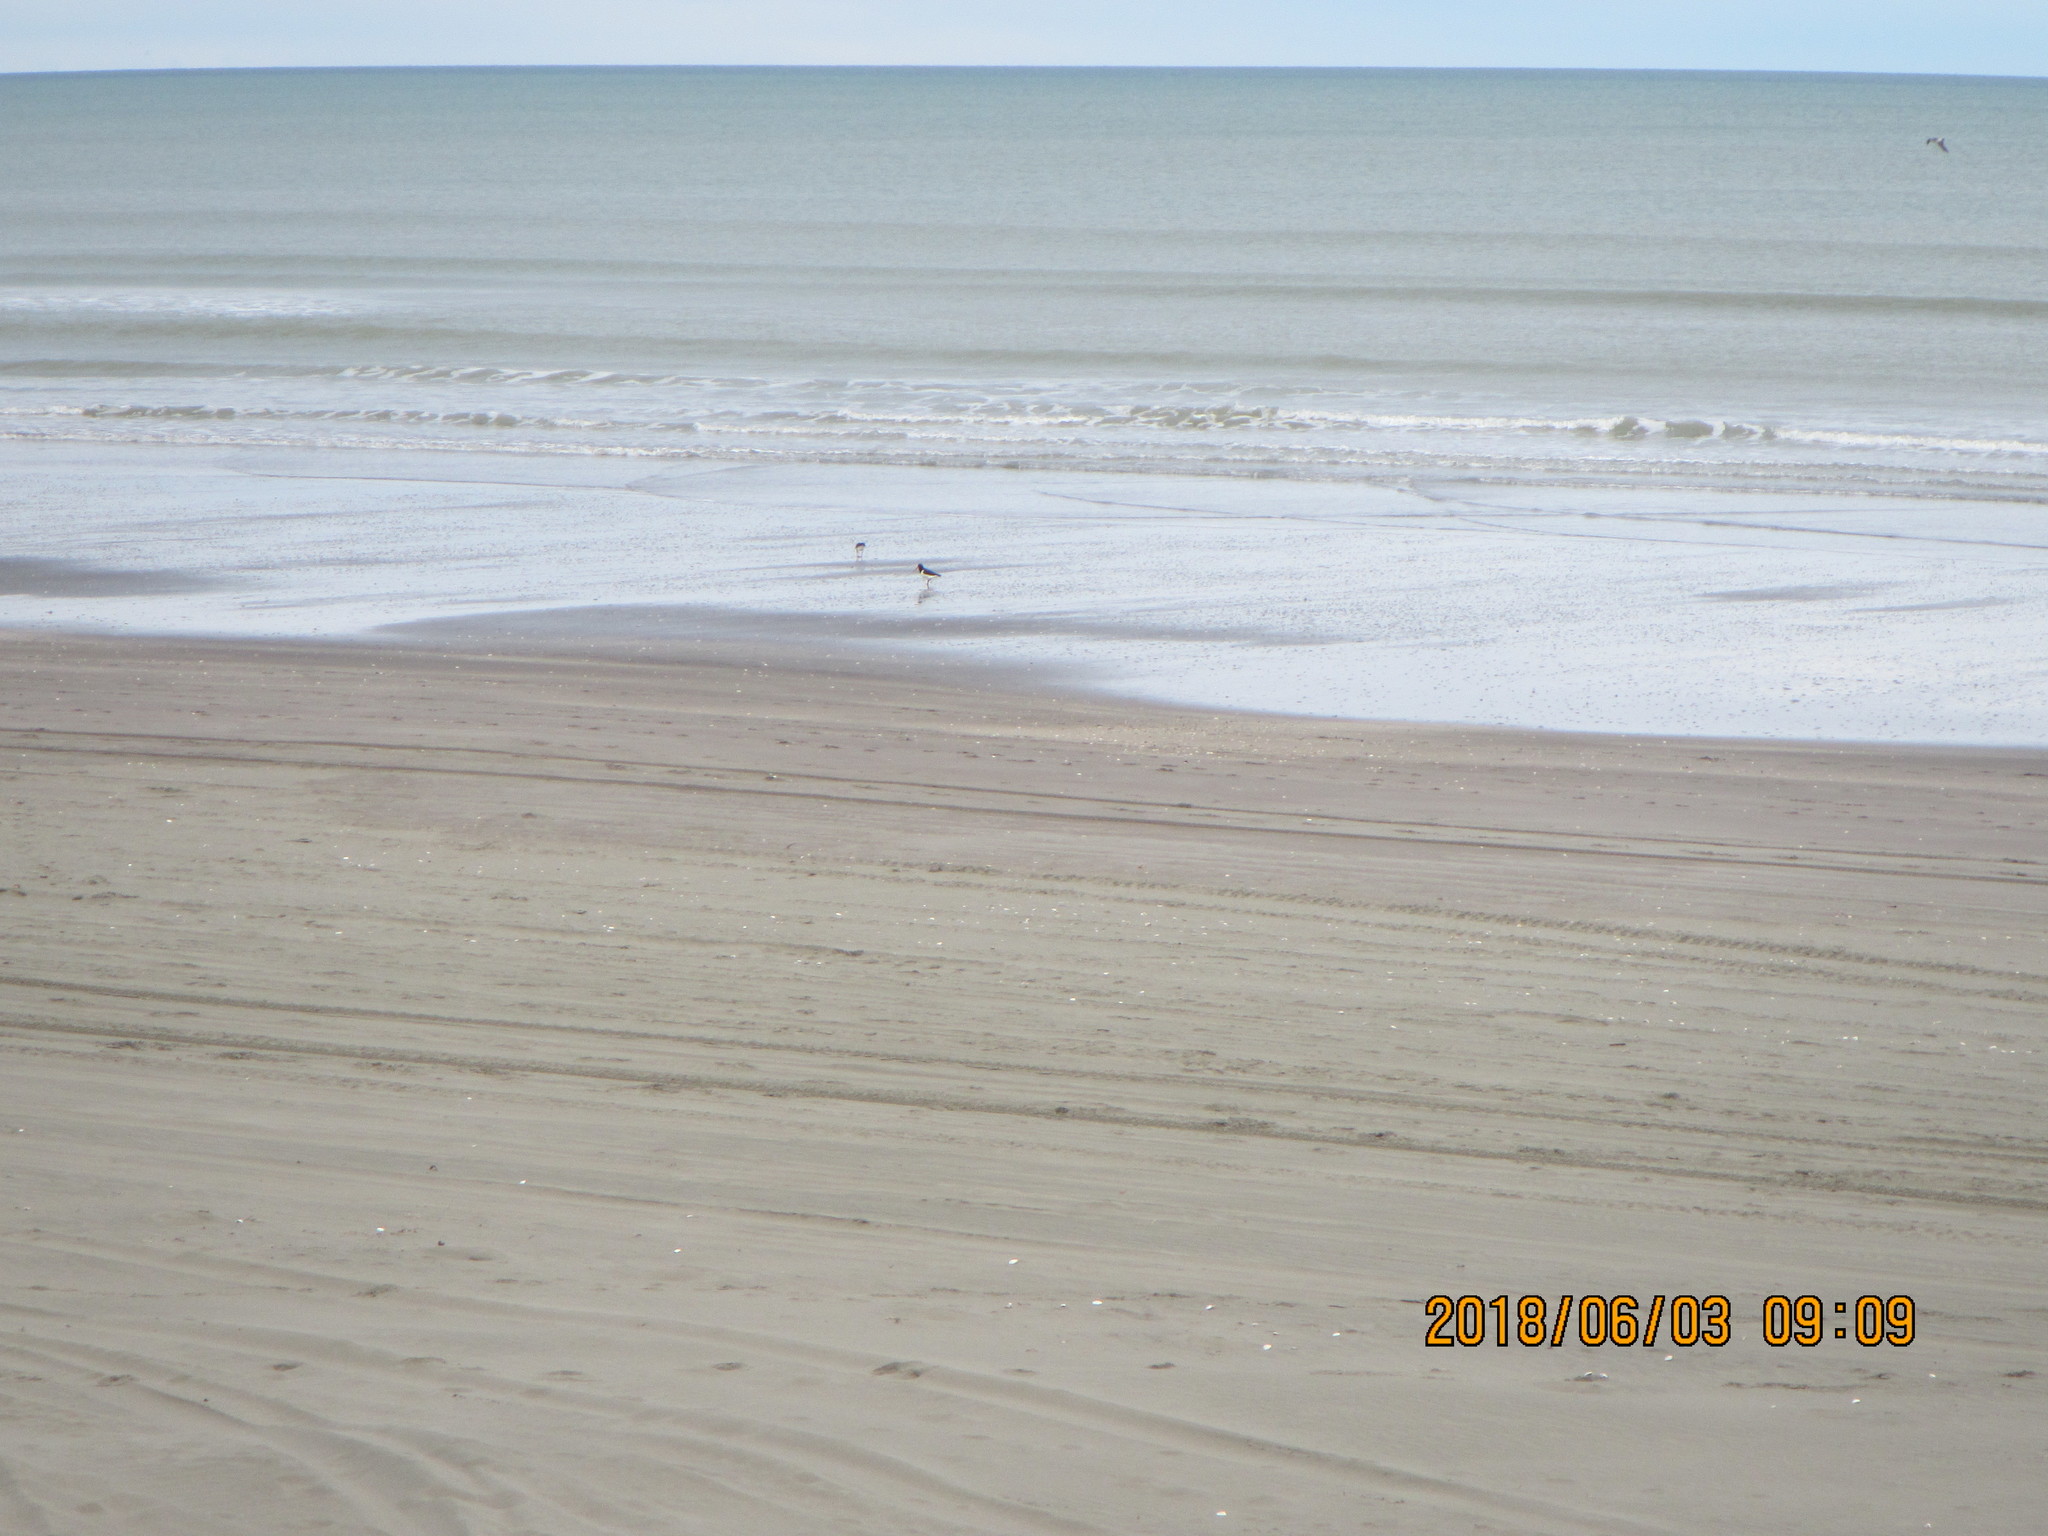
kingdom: Animalia
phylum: Chordata
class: Aves
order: Charadriiformes
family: Haematopodidae
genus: Haematopus
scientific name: Haematopus finschi
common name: South island oystercatcher
